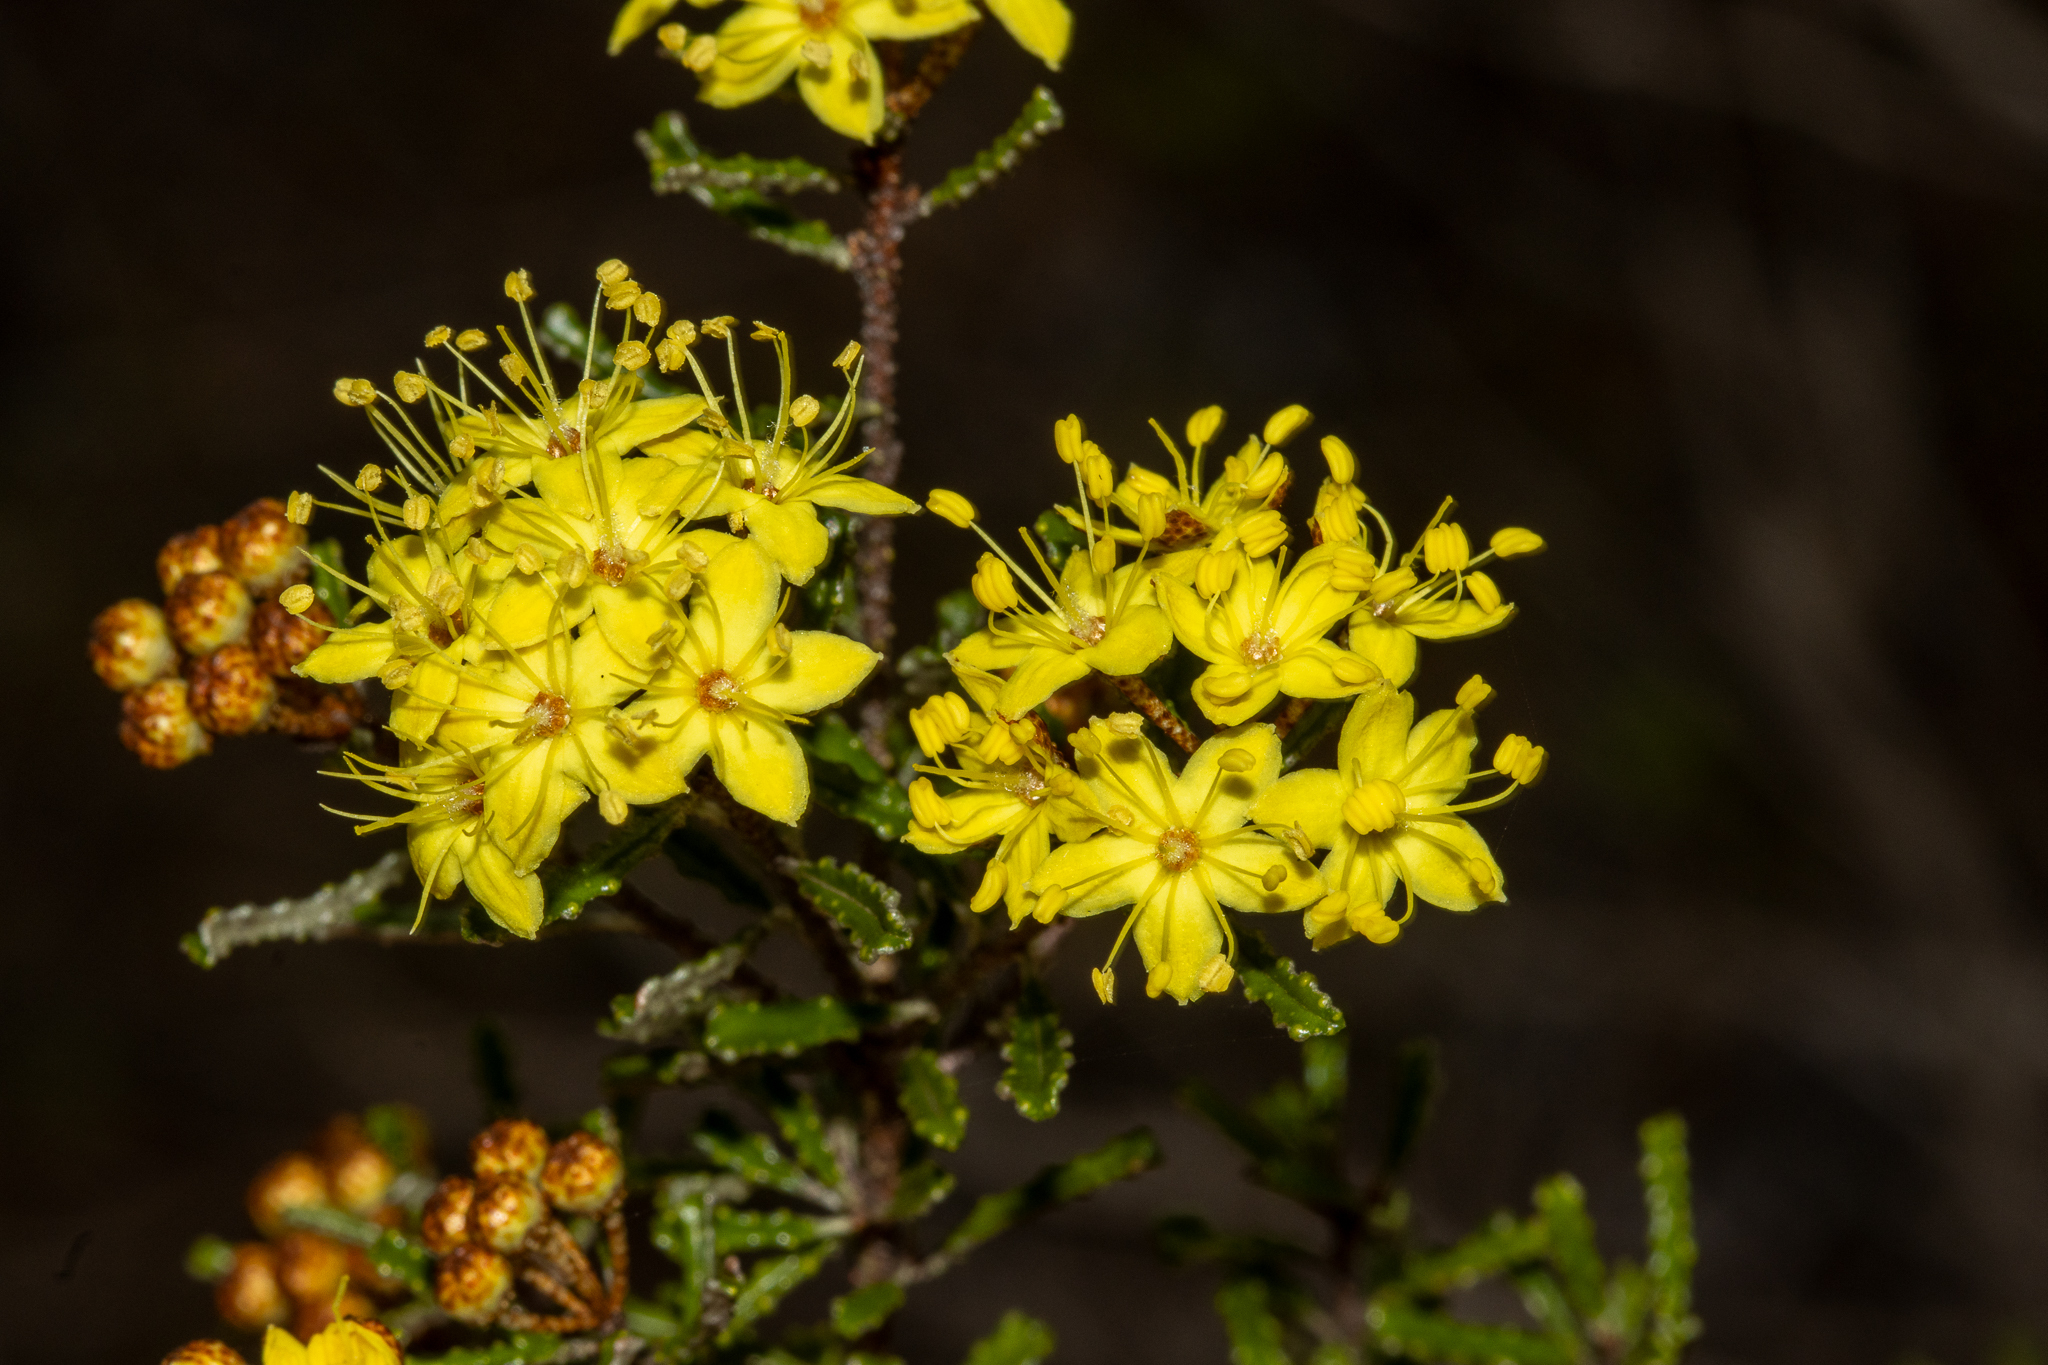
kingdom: Plantae
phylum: Tracheophyta
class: Magnoliopsida
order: Sapindales
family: Rutaceae
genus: Phebalium
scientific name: Phebalium bullatum
